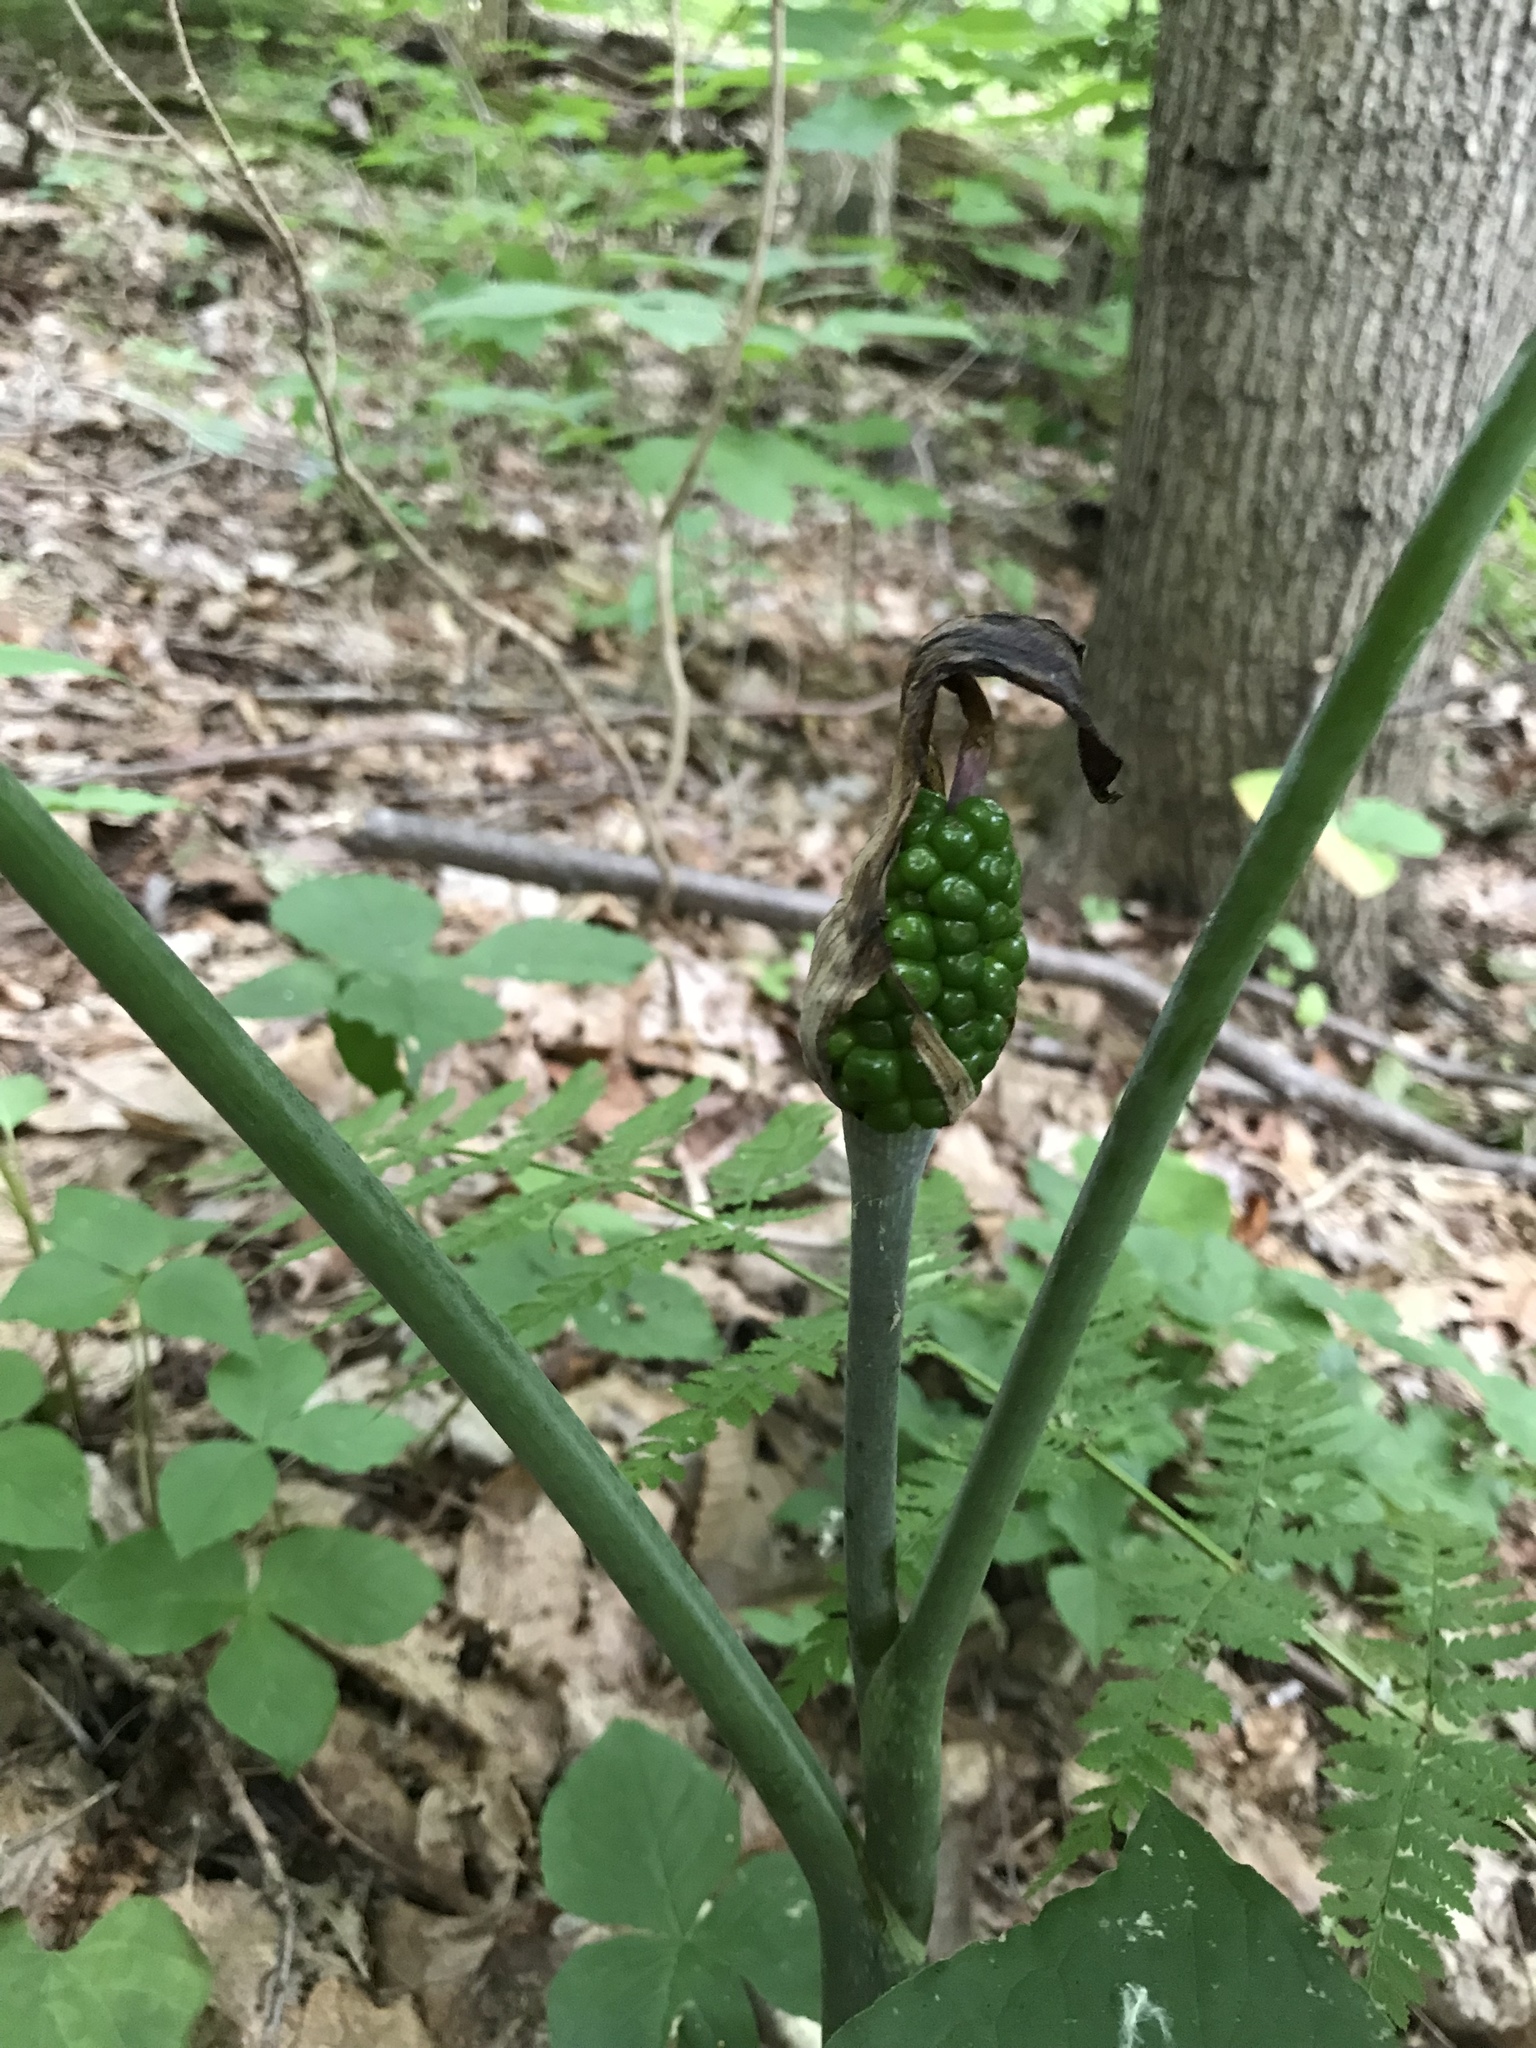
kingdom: Plantae
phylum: Tracheophyta
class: Liliopsida
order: Alismatales
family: Araceae
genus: Arisaema
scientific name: Arisaema triphyllum
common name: Jack-in-the-pulpit
